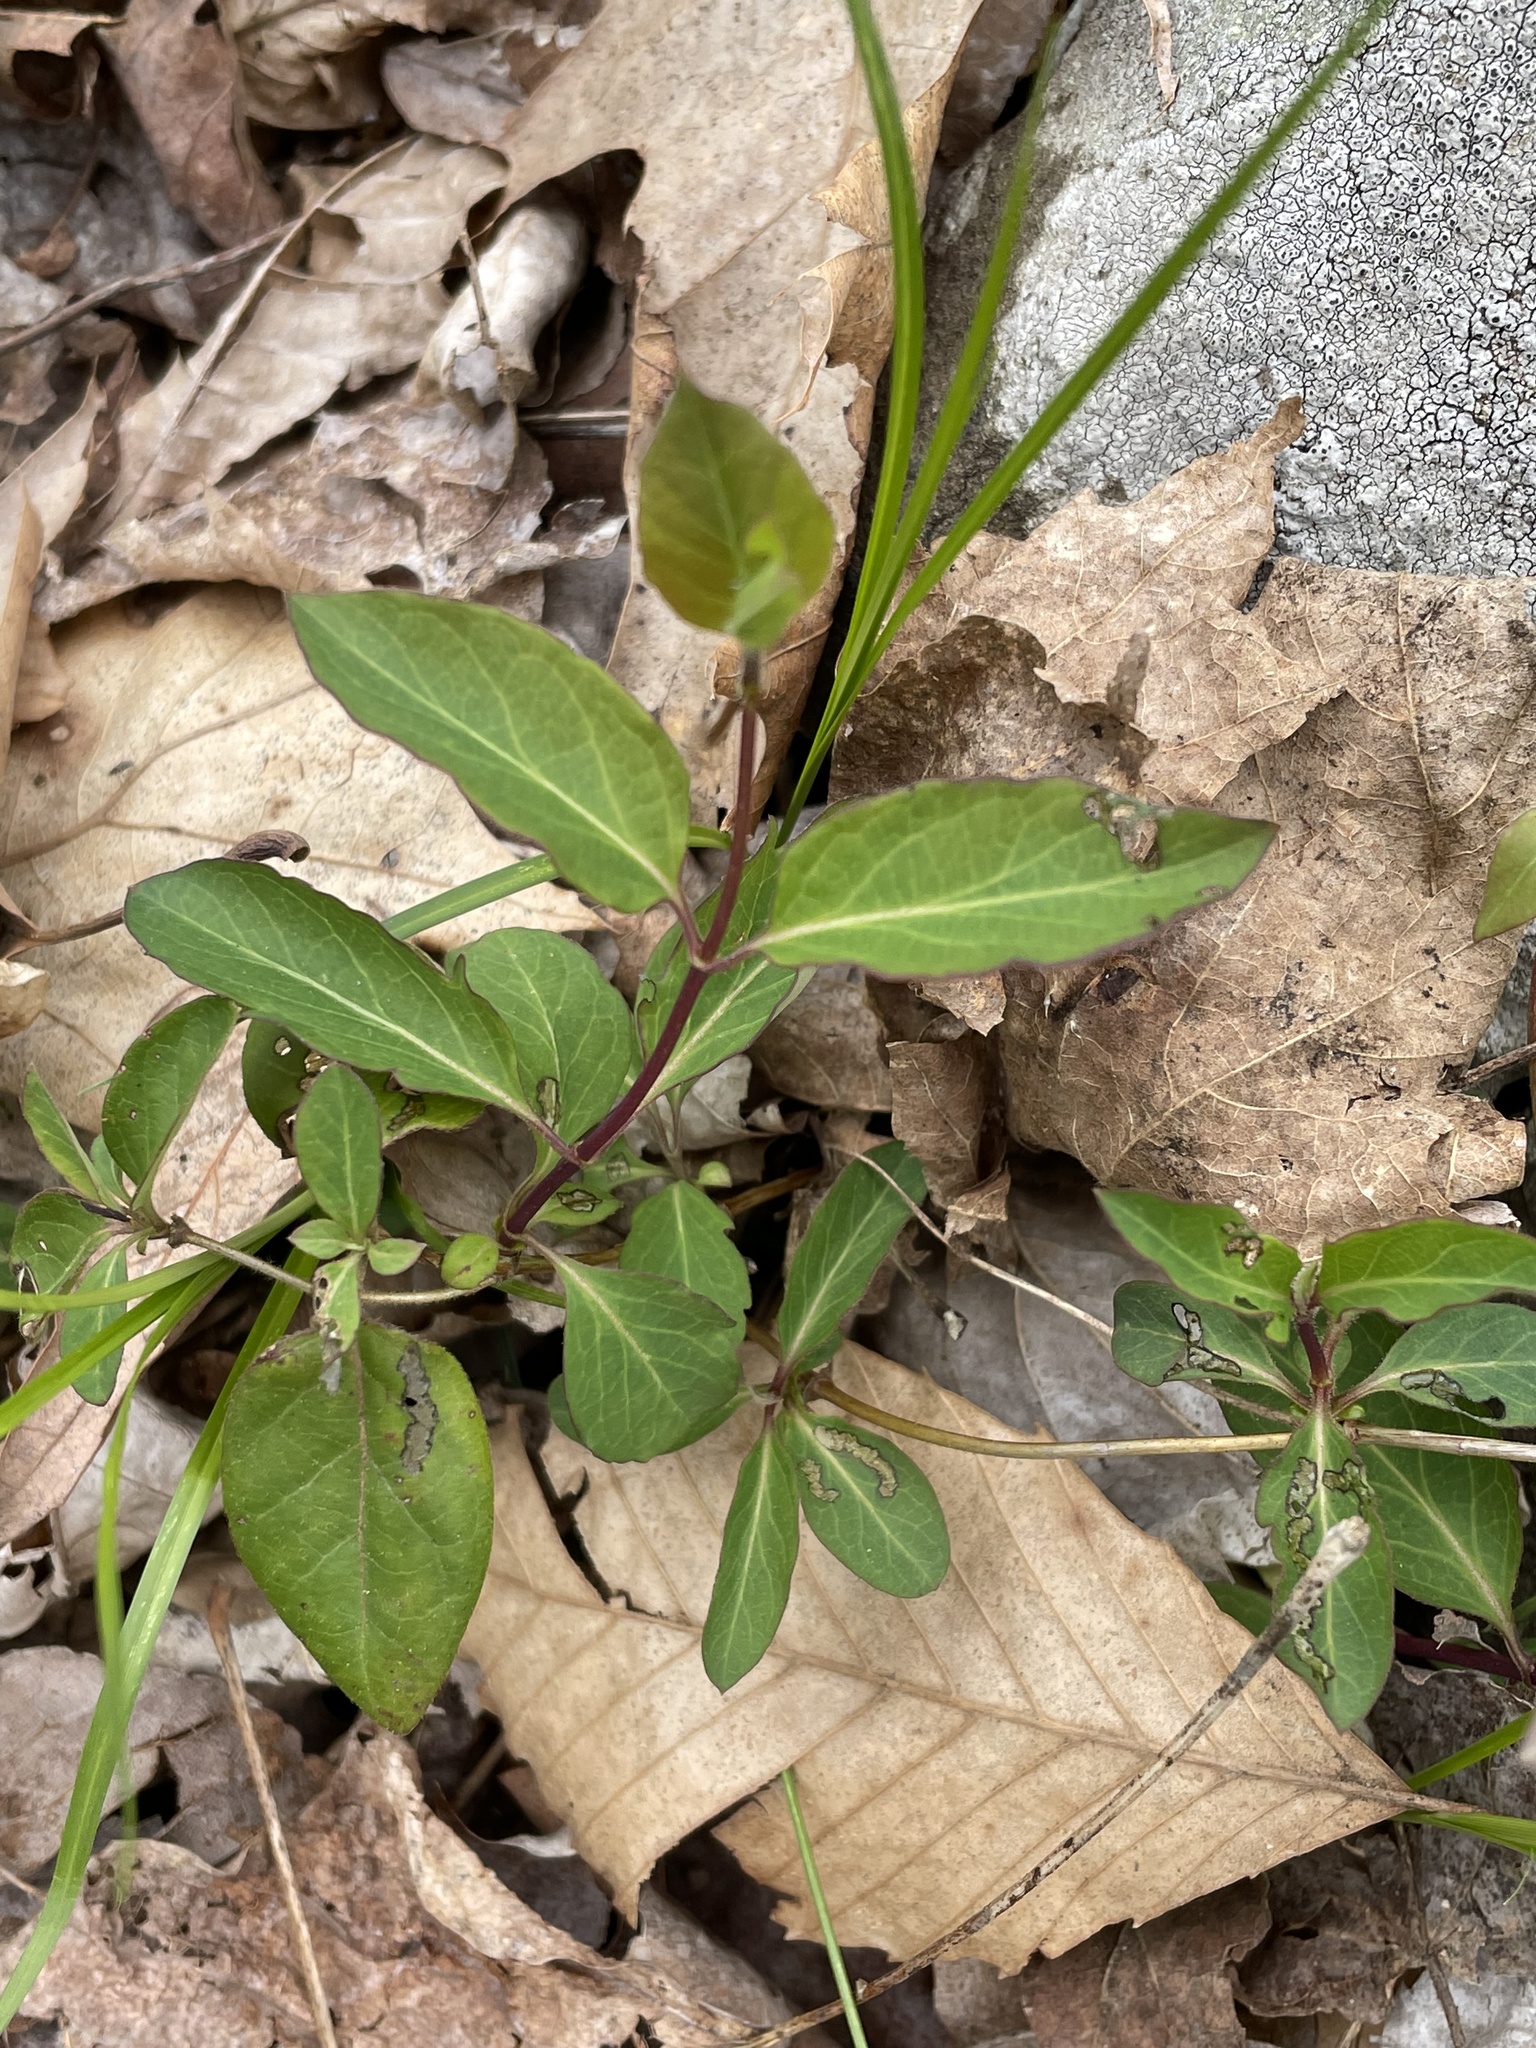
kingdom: Plantae
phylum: Tracheophyta
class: Magnoliopsida
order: Dipsacales
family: Caprifoliaceae
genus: Lonicera
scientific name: Lonicera japonica
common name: Japanese honeysuckle
